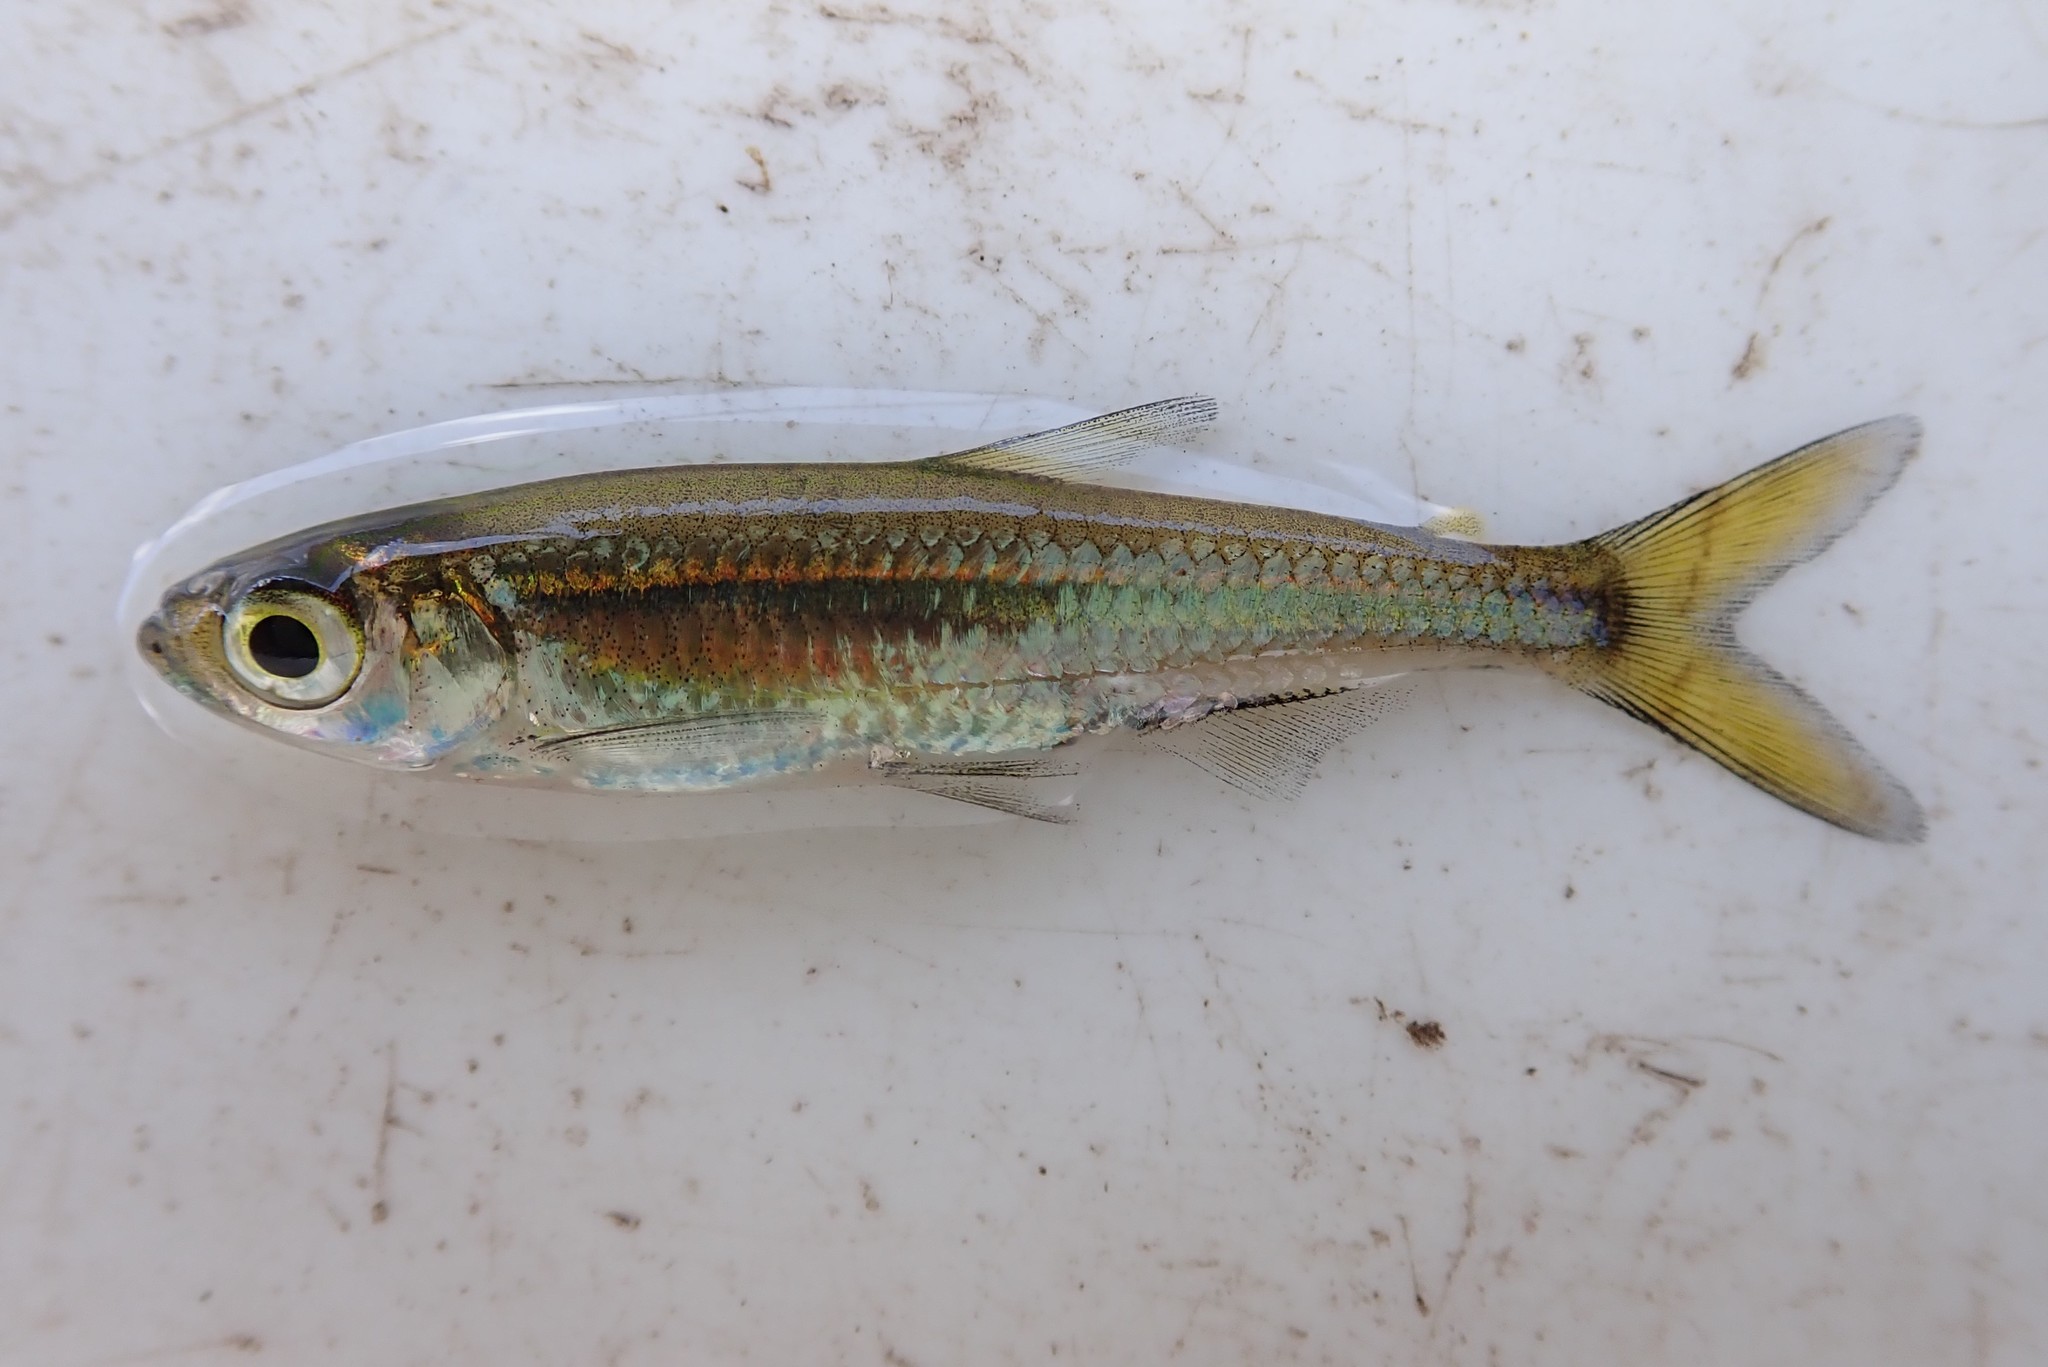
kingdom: Animalia
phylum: Chordata
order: Characiformes
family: Alestidae
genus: Rhabdalestes
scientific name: Rhabdalestes maunensis
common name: Slender robber
